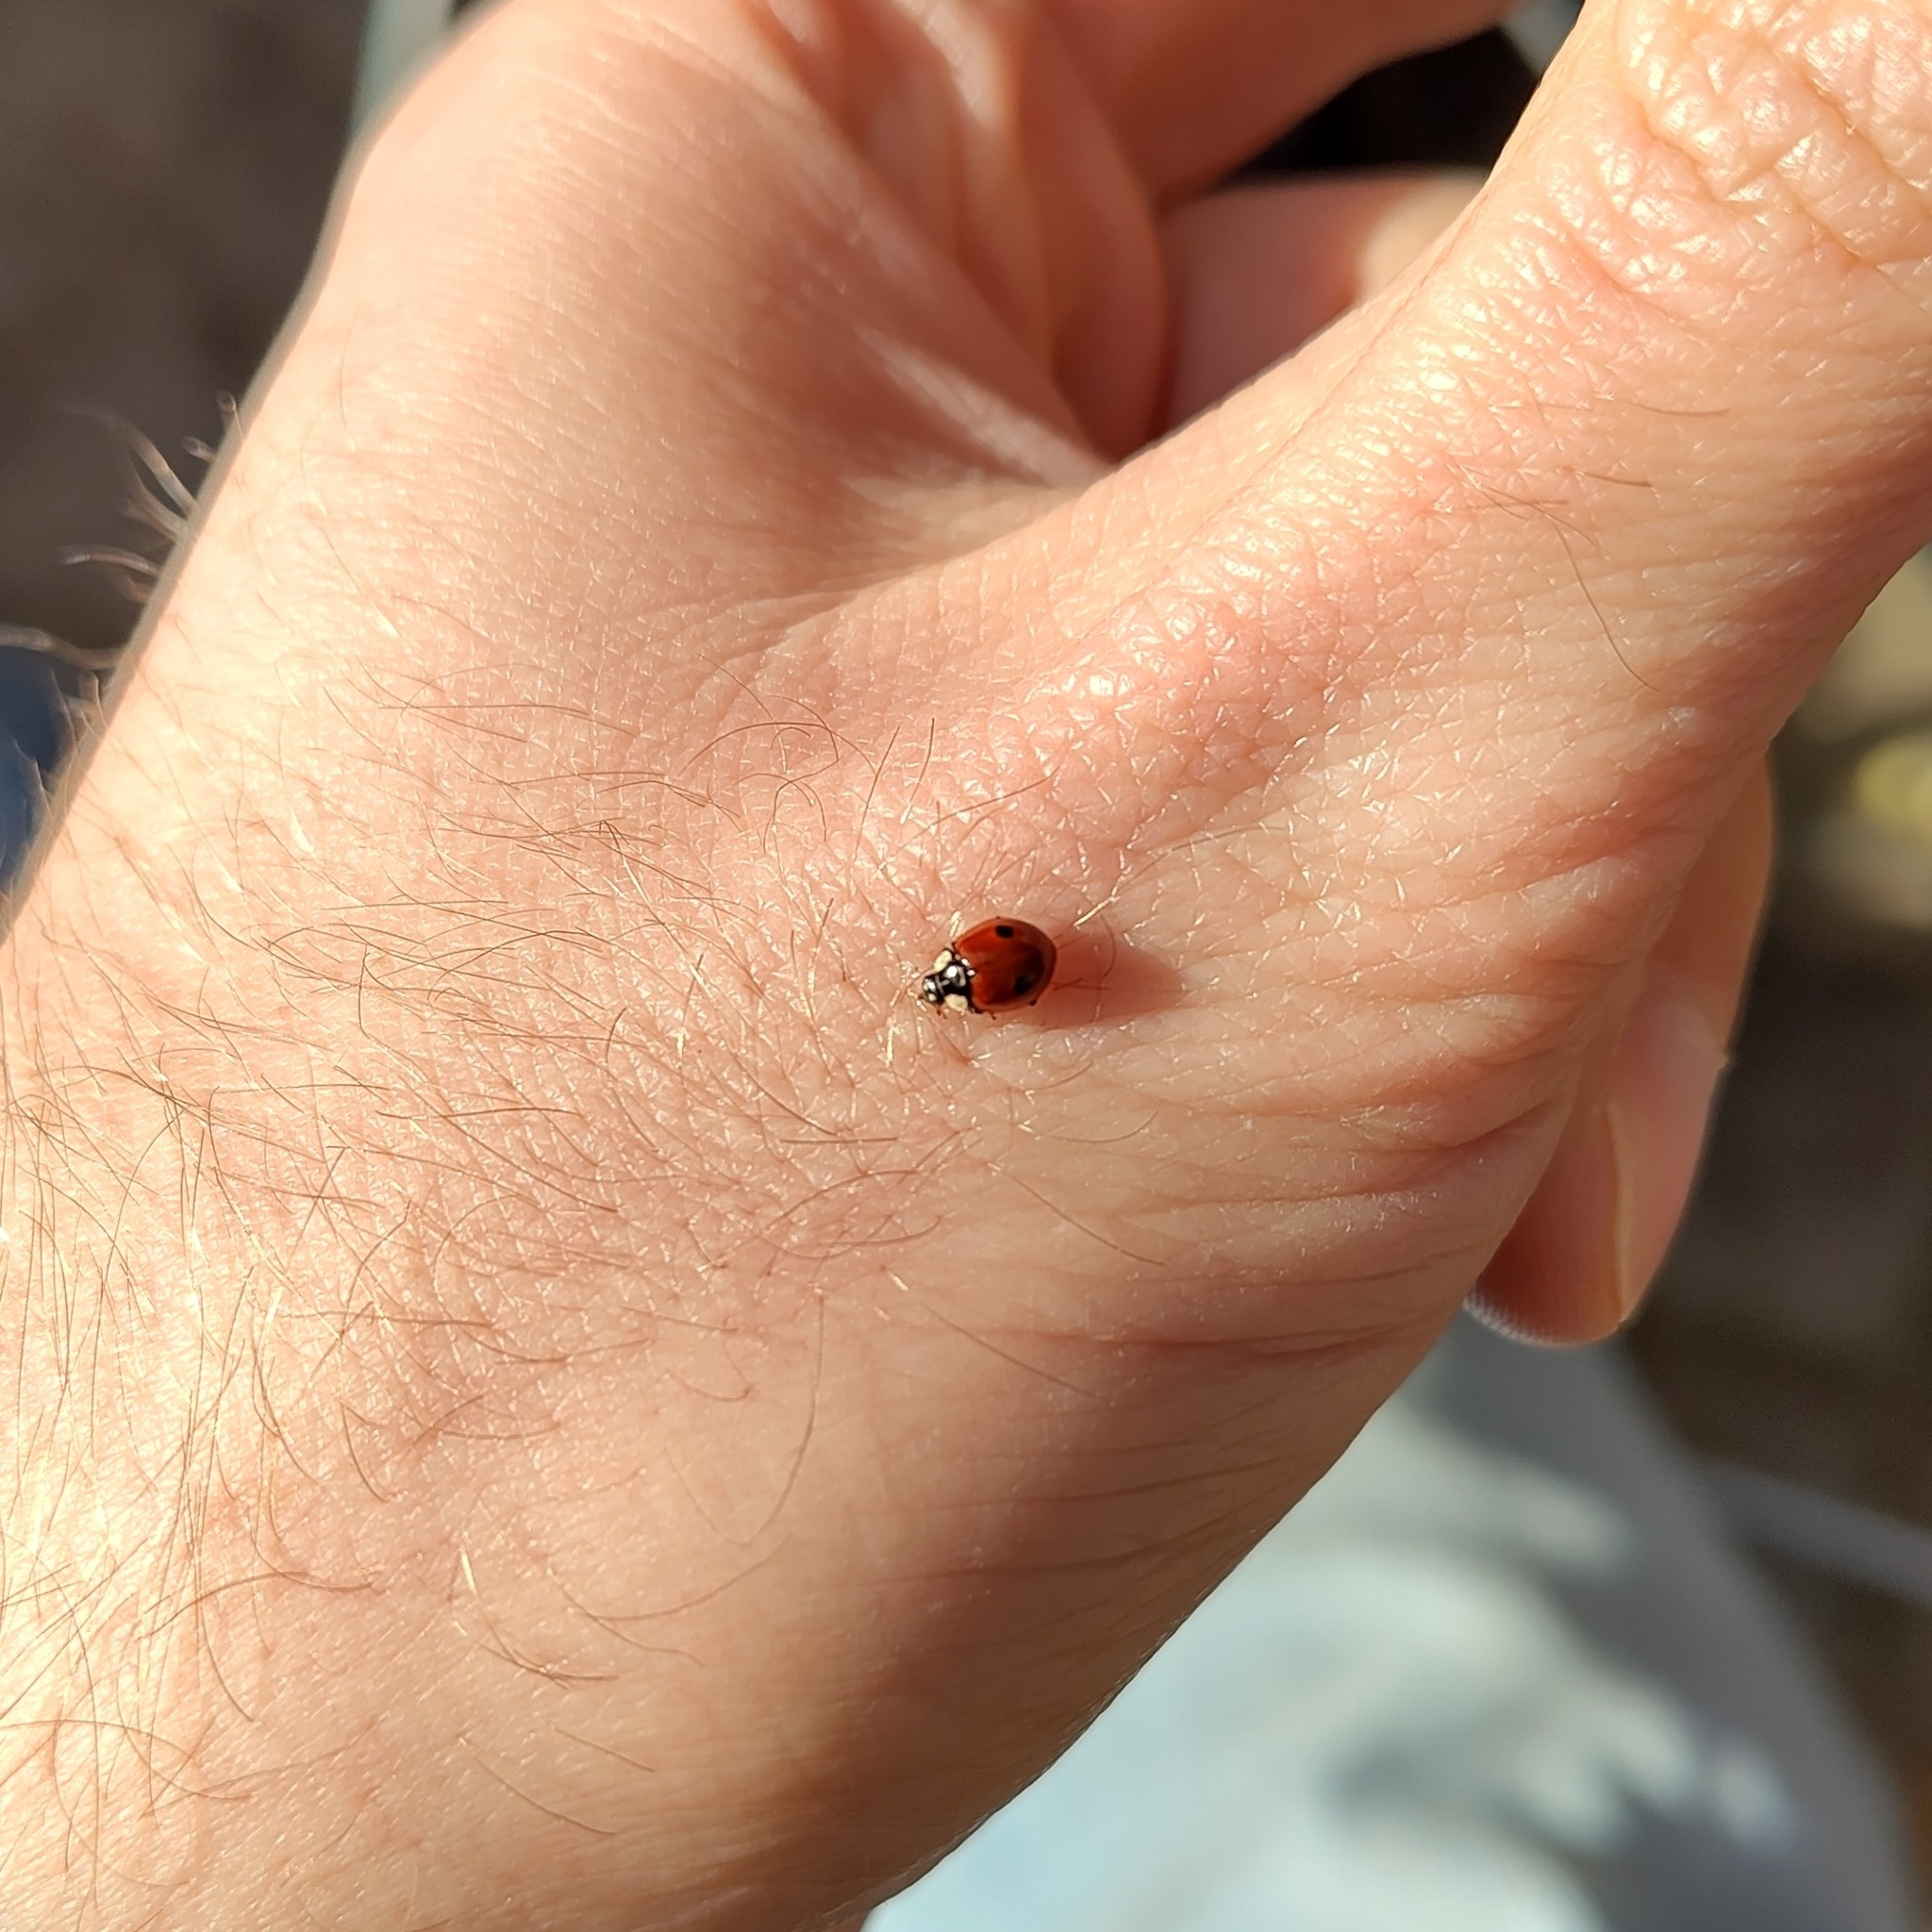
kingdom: Animalia
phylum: Arthropoda
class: Insecta
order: Coleoptera
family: Coccinellidae
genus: Adalia
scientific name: Adalia bipunctata
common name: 2-spot ladybird
